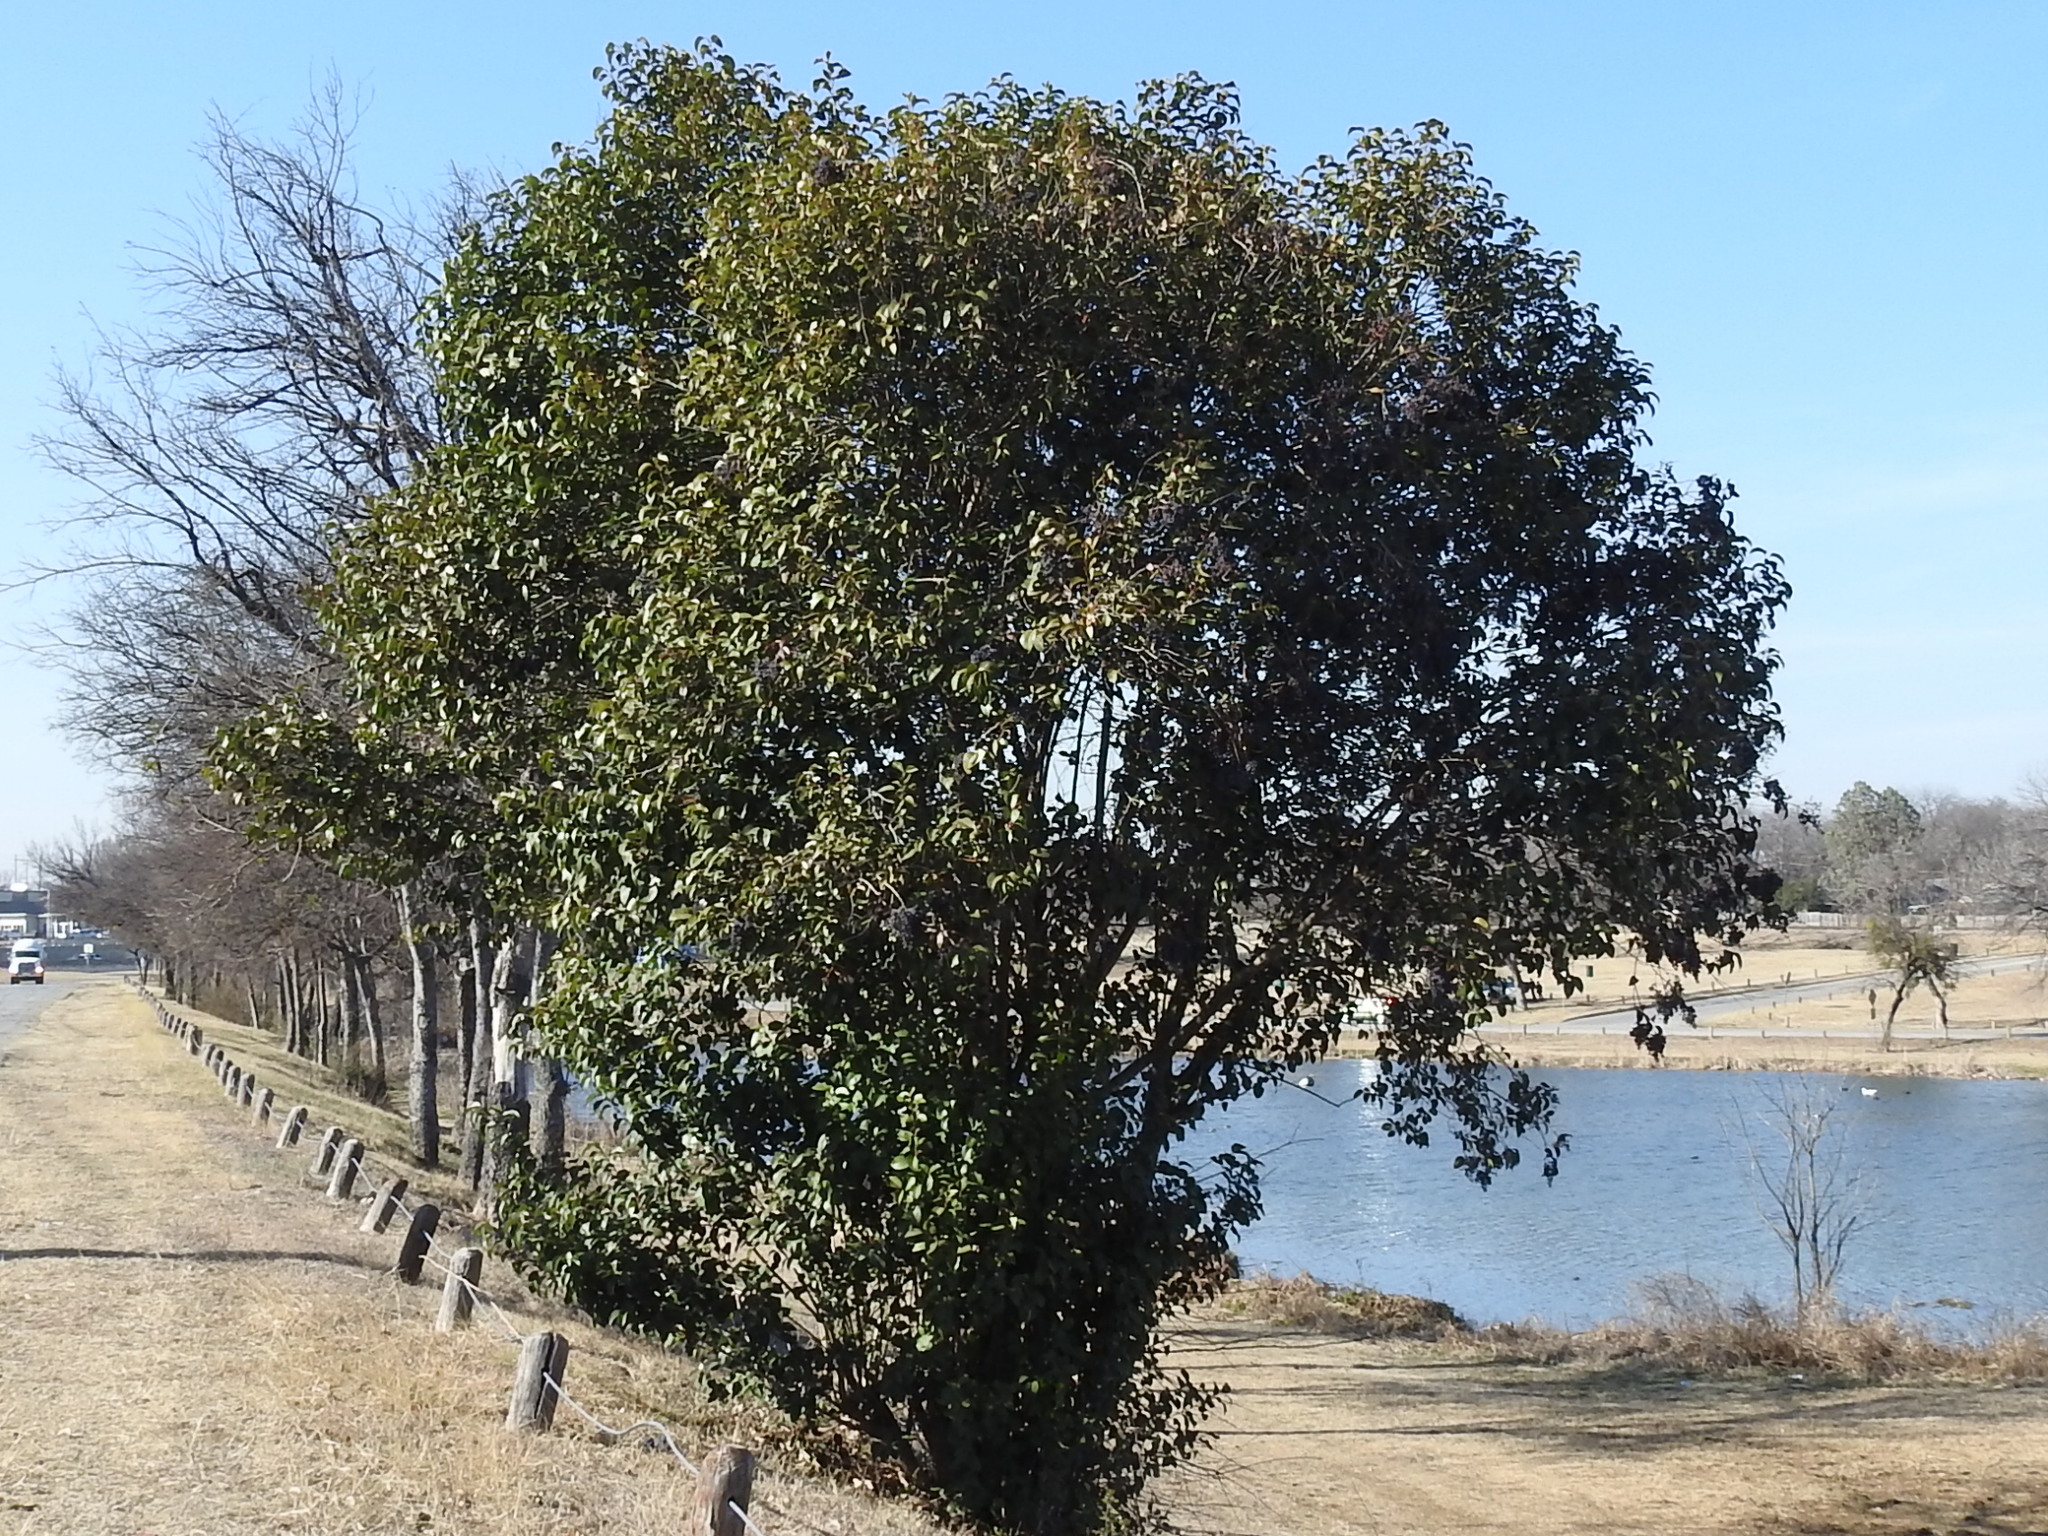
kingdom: Plantae
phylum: Tracheophyta
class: Magnoliopsida
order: Lamiales
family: Oleaceae
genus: Ligustrum
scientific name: Ligustrum lucidum
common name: Glossy privet
